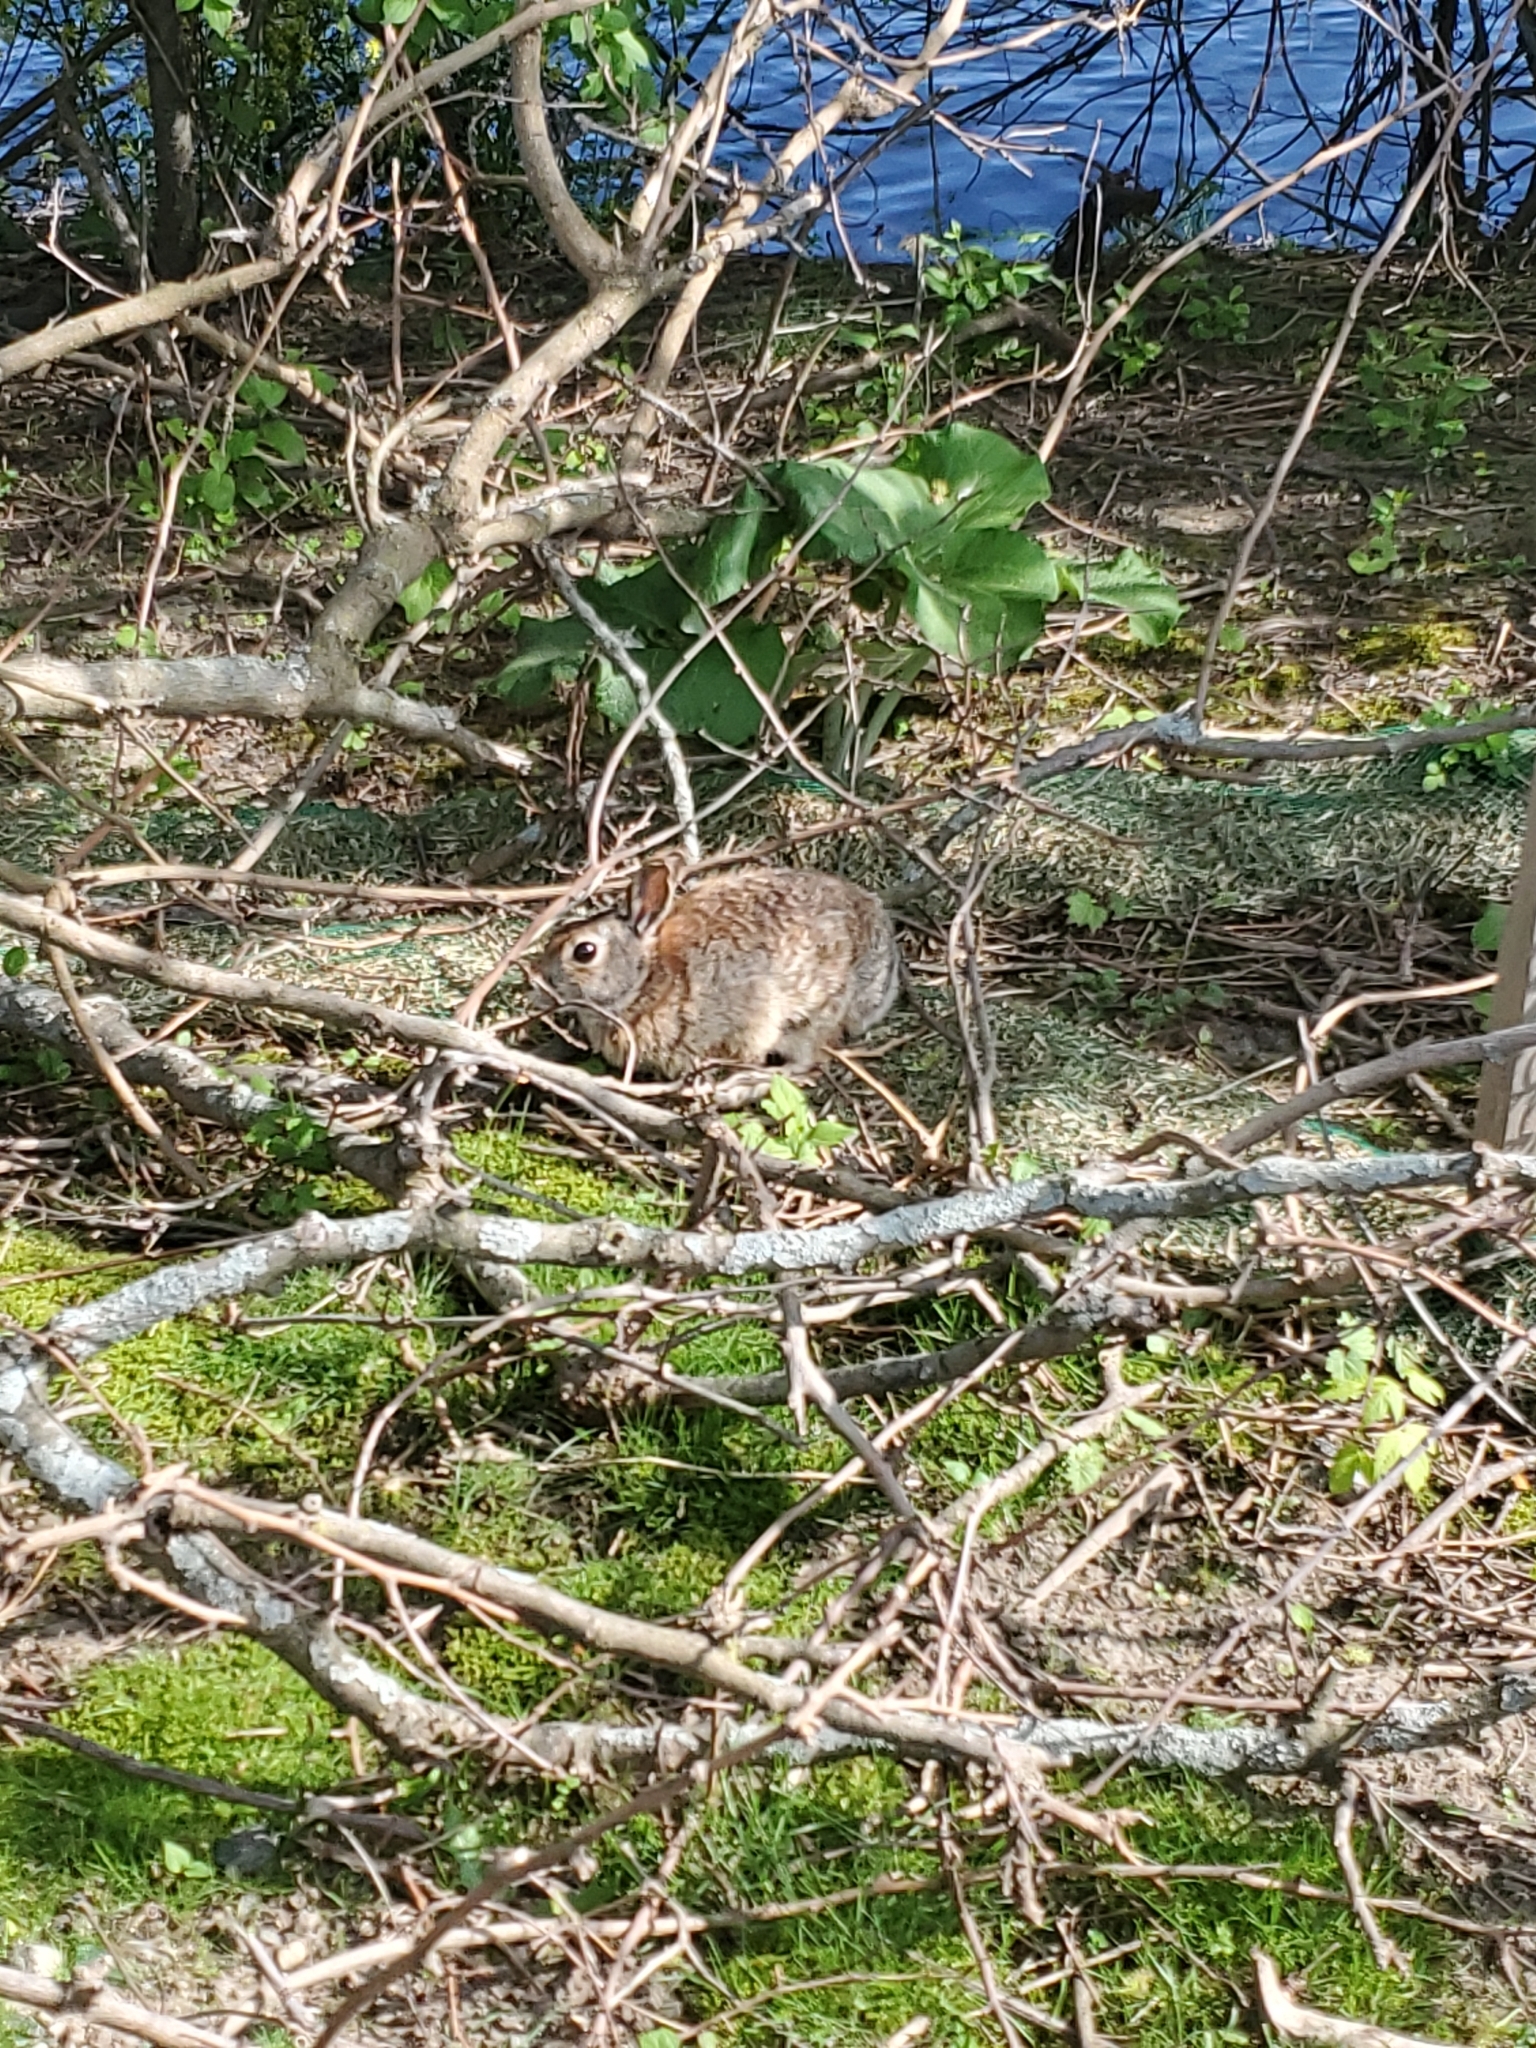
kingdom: Animalia
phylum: Chordata
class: Mammalia
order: Lagomorpha
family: Leporidae
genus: Sylvilagus
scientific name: Sylvilagus floridanus
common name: Eastern cottontail
